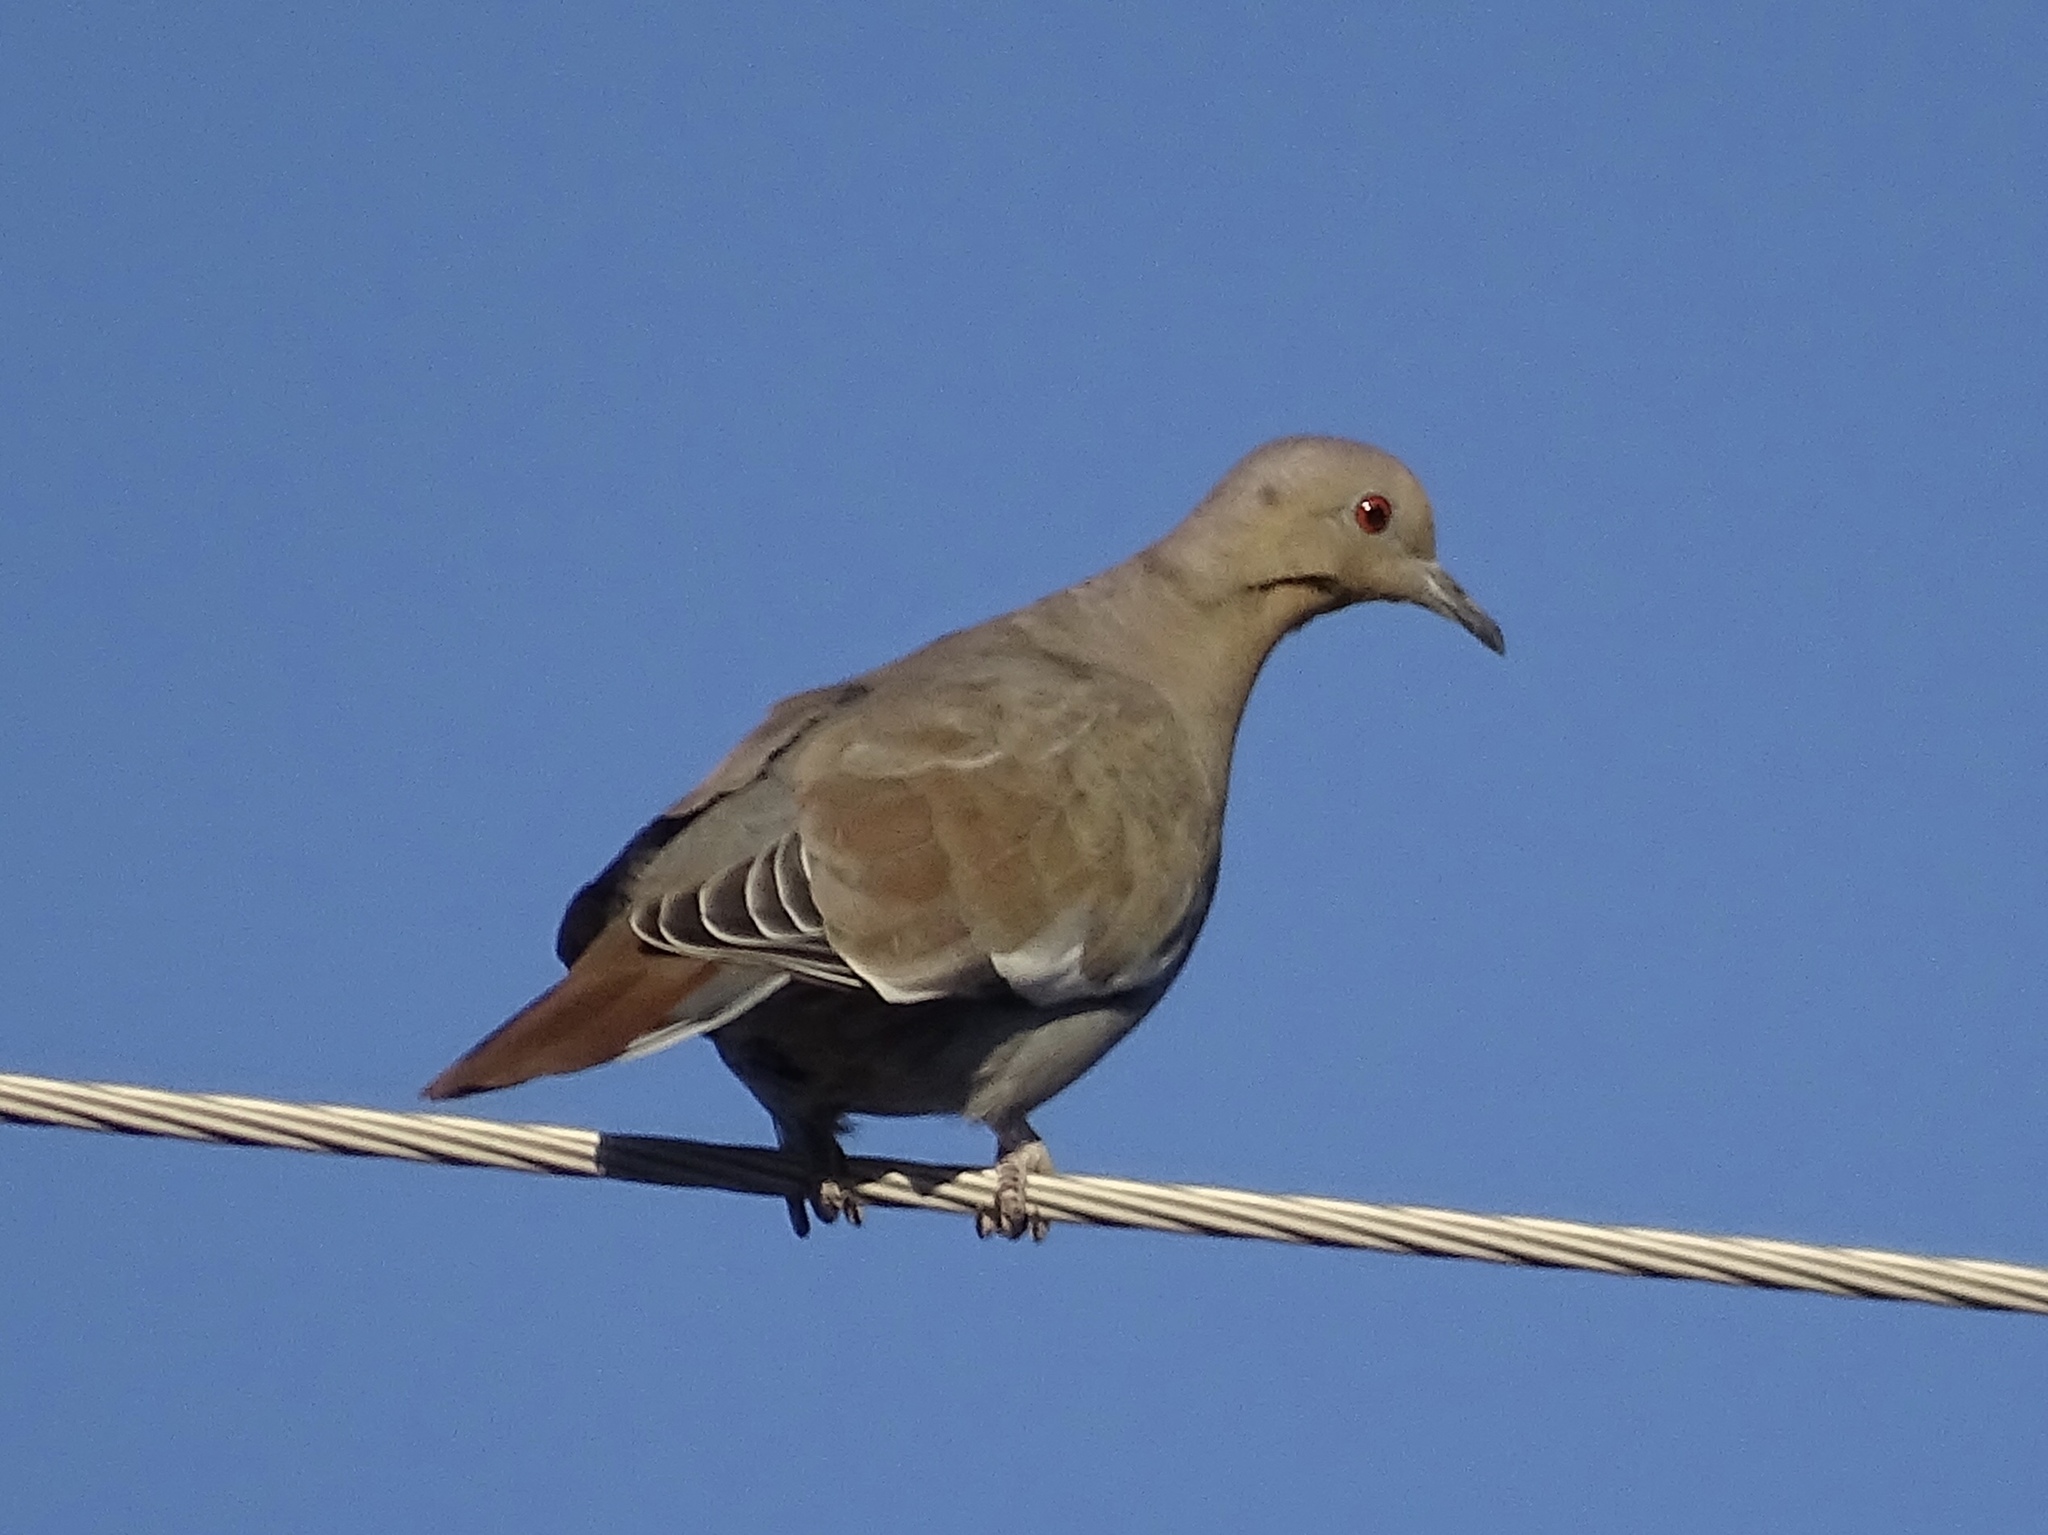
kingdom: Animalia
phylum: Chordata
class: Aves
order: Columbiformes
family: Columbidae
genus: Zenaida
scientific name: Zenaida asiatica
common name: White-winged dove
